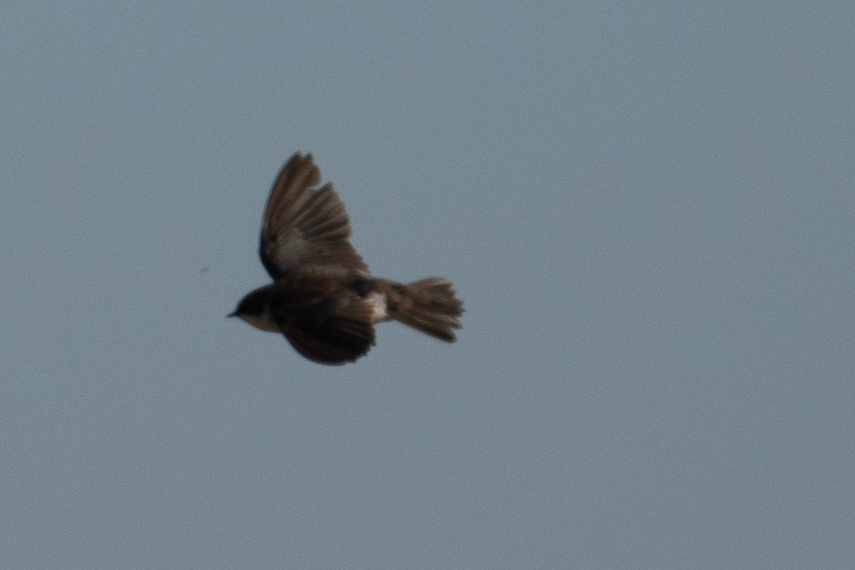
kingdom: Animalia
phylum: Chordata
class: Aves
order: Passeriformes
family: Hirundinidae
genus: Tachycineta
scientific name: Tachycineta bicolor
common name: Tree swallow
